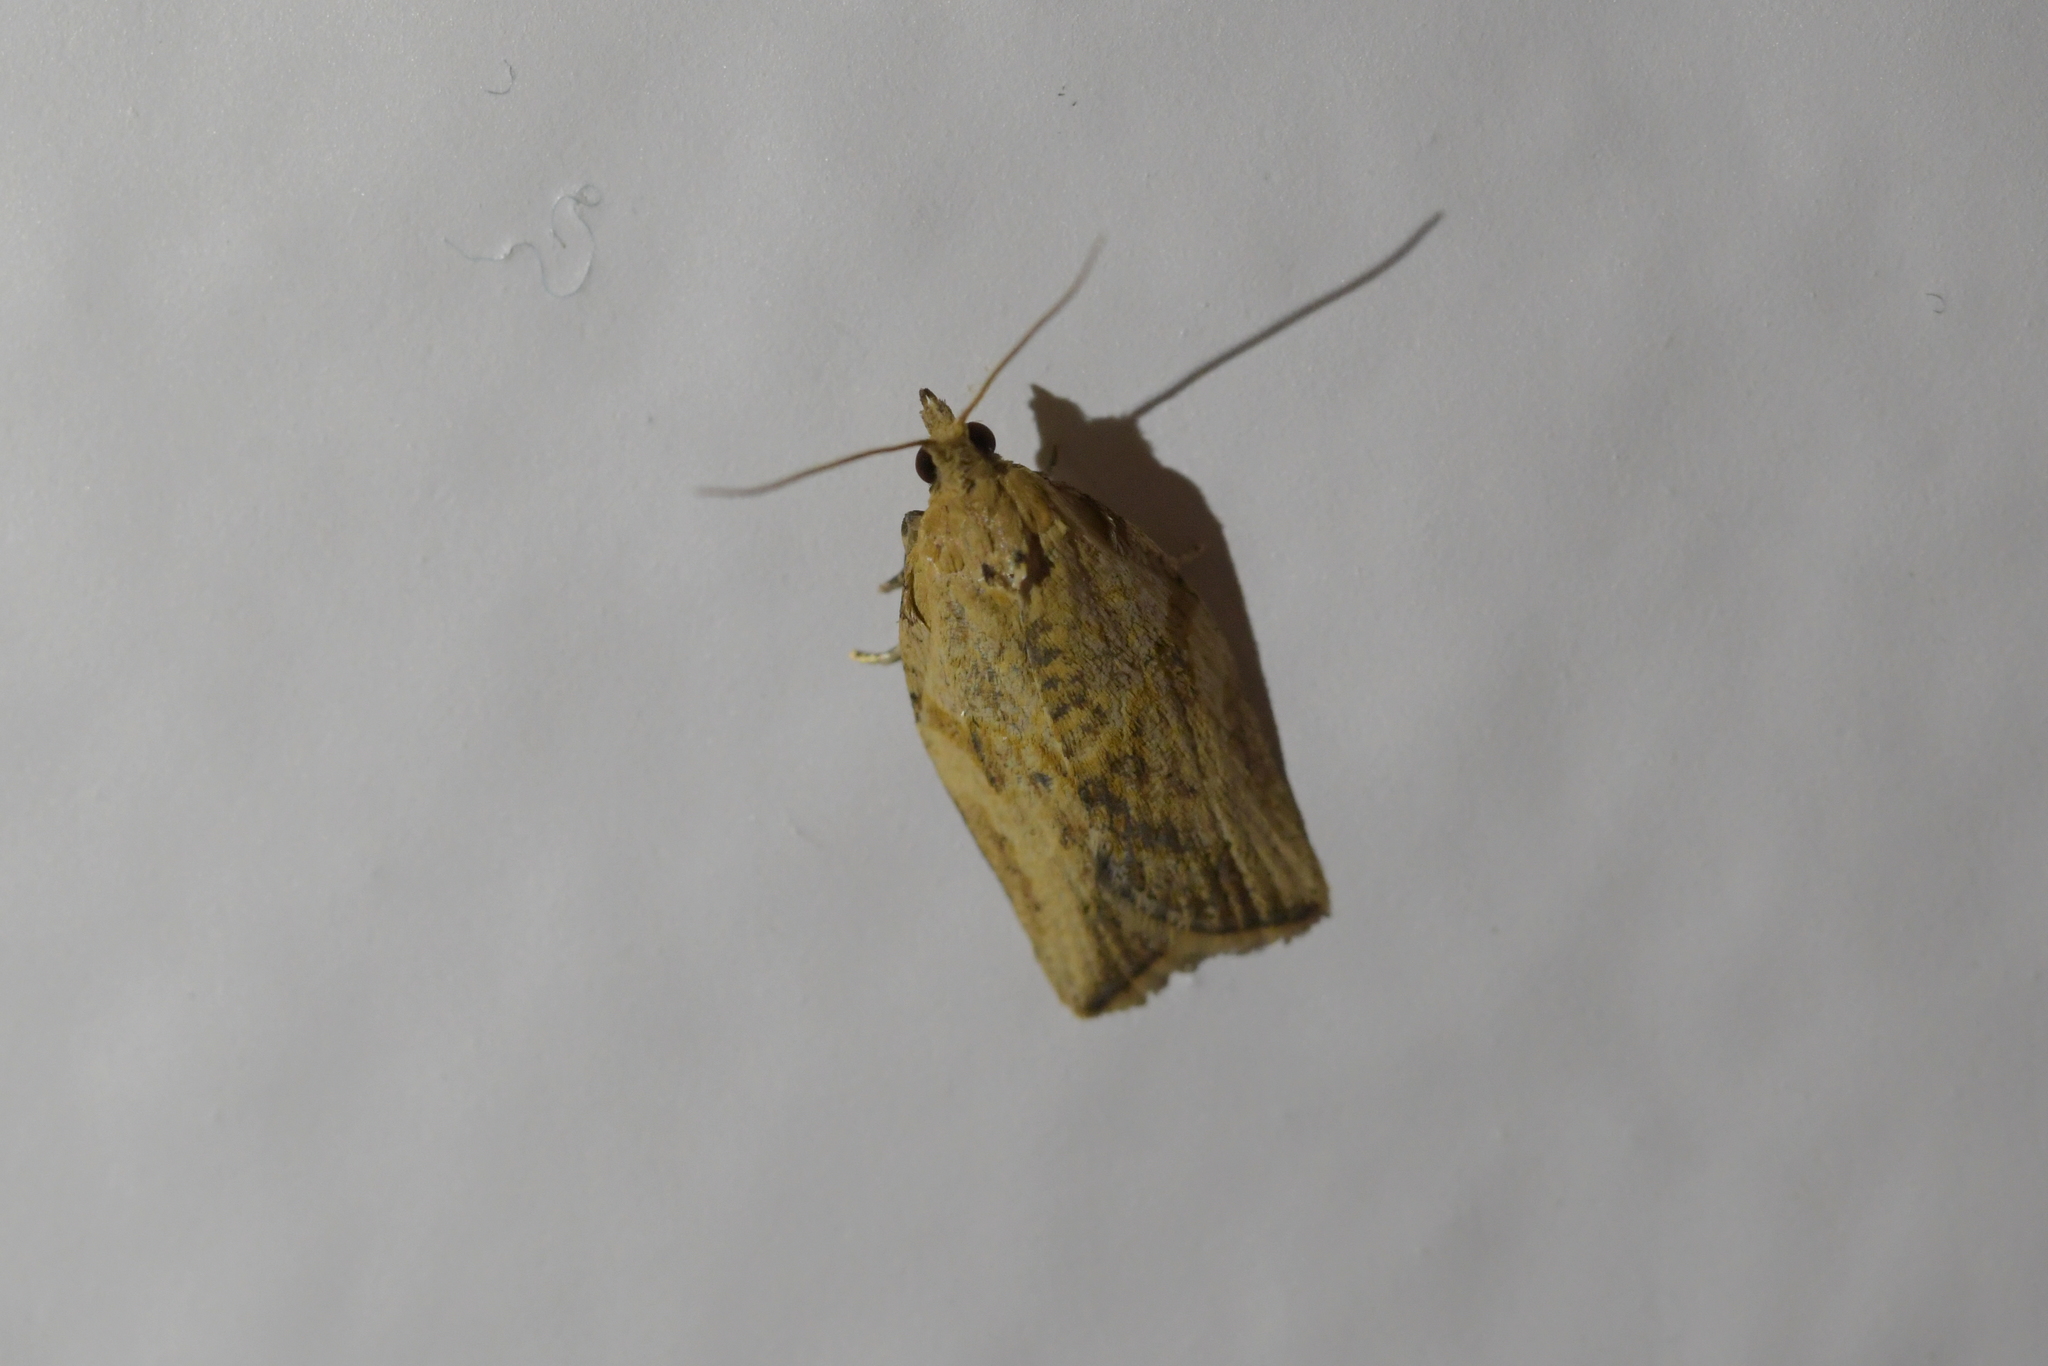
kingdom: Animalia
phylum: Arthropoda
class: Insecta
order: Lepidoptera
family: Tortricidae
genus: Epiphyas
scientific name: Epiphyas postvittana
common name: Light brown apple moth
